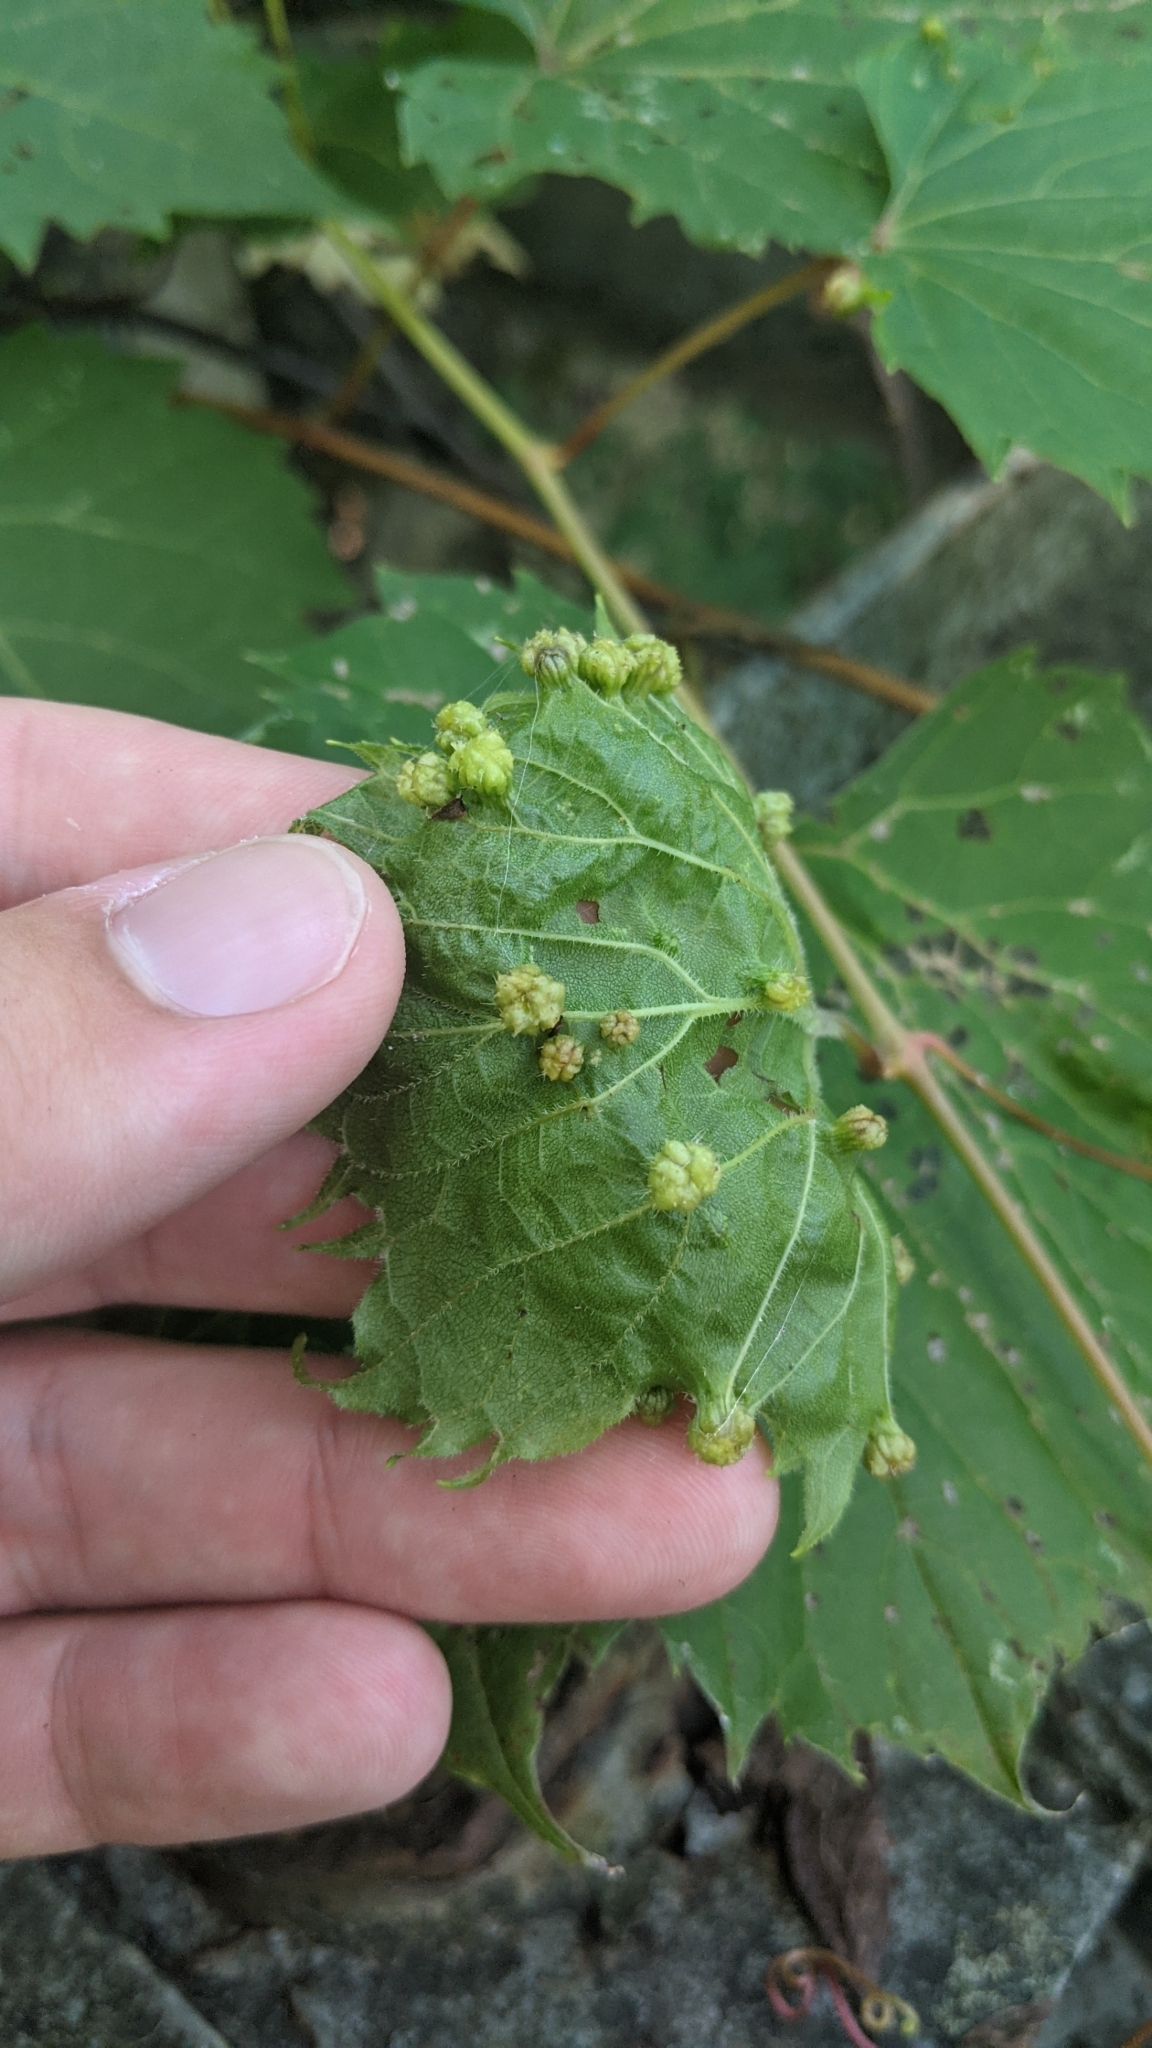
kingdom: Animalia
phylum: Arthropoda
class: Insecta
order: Hemiptera
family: Phylloxeridae
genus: Daktulosphaira
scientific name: Daktulosphaira vitifoliae
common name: Grape phylloxera
